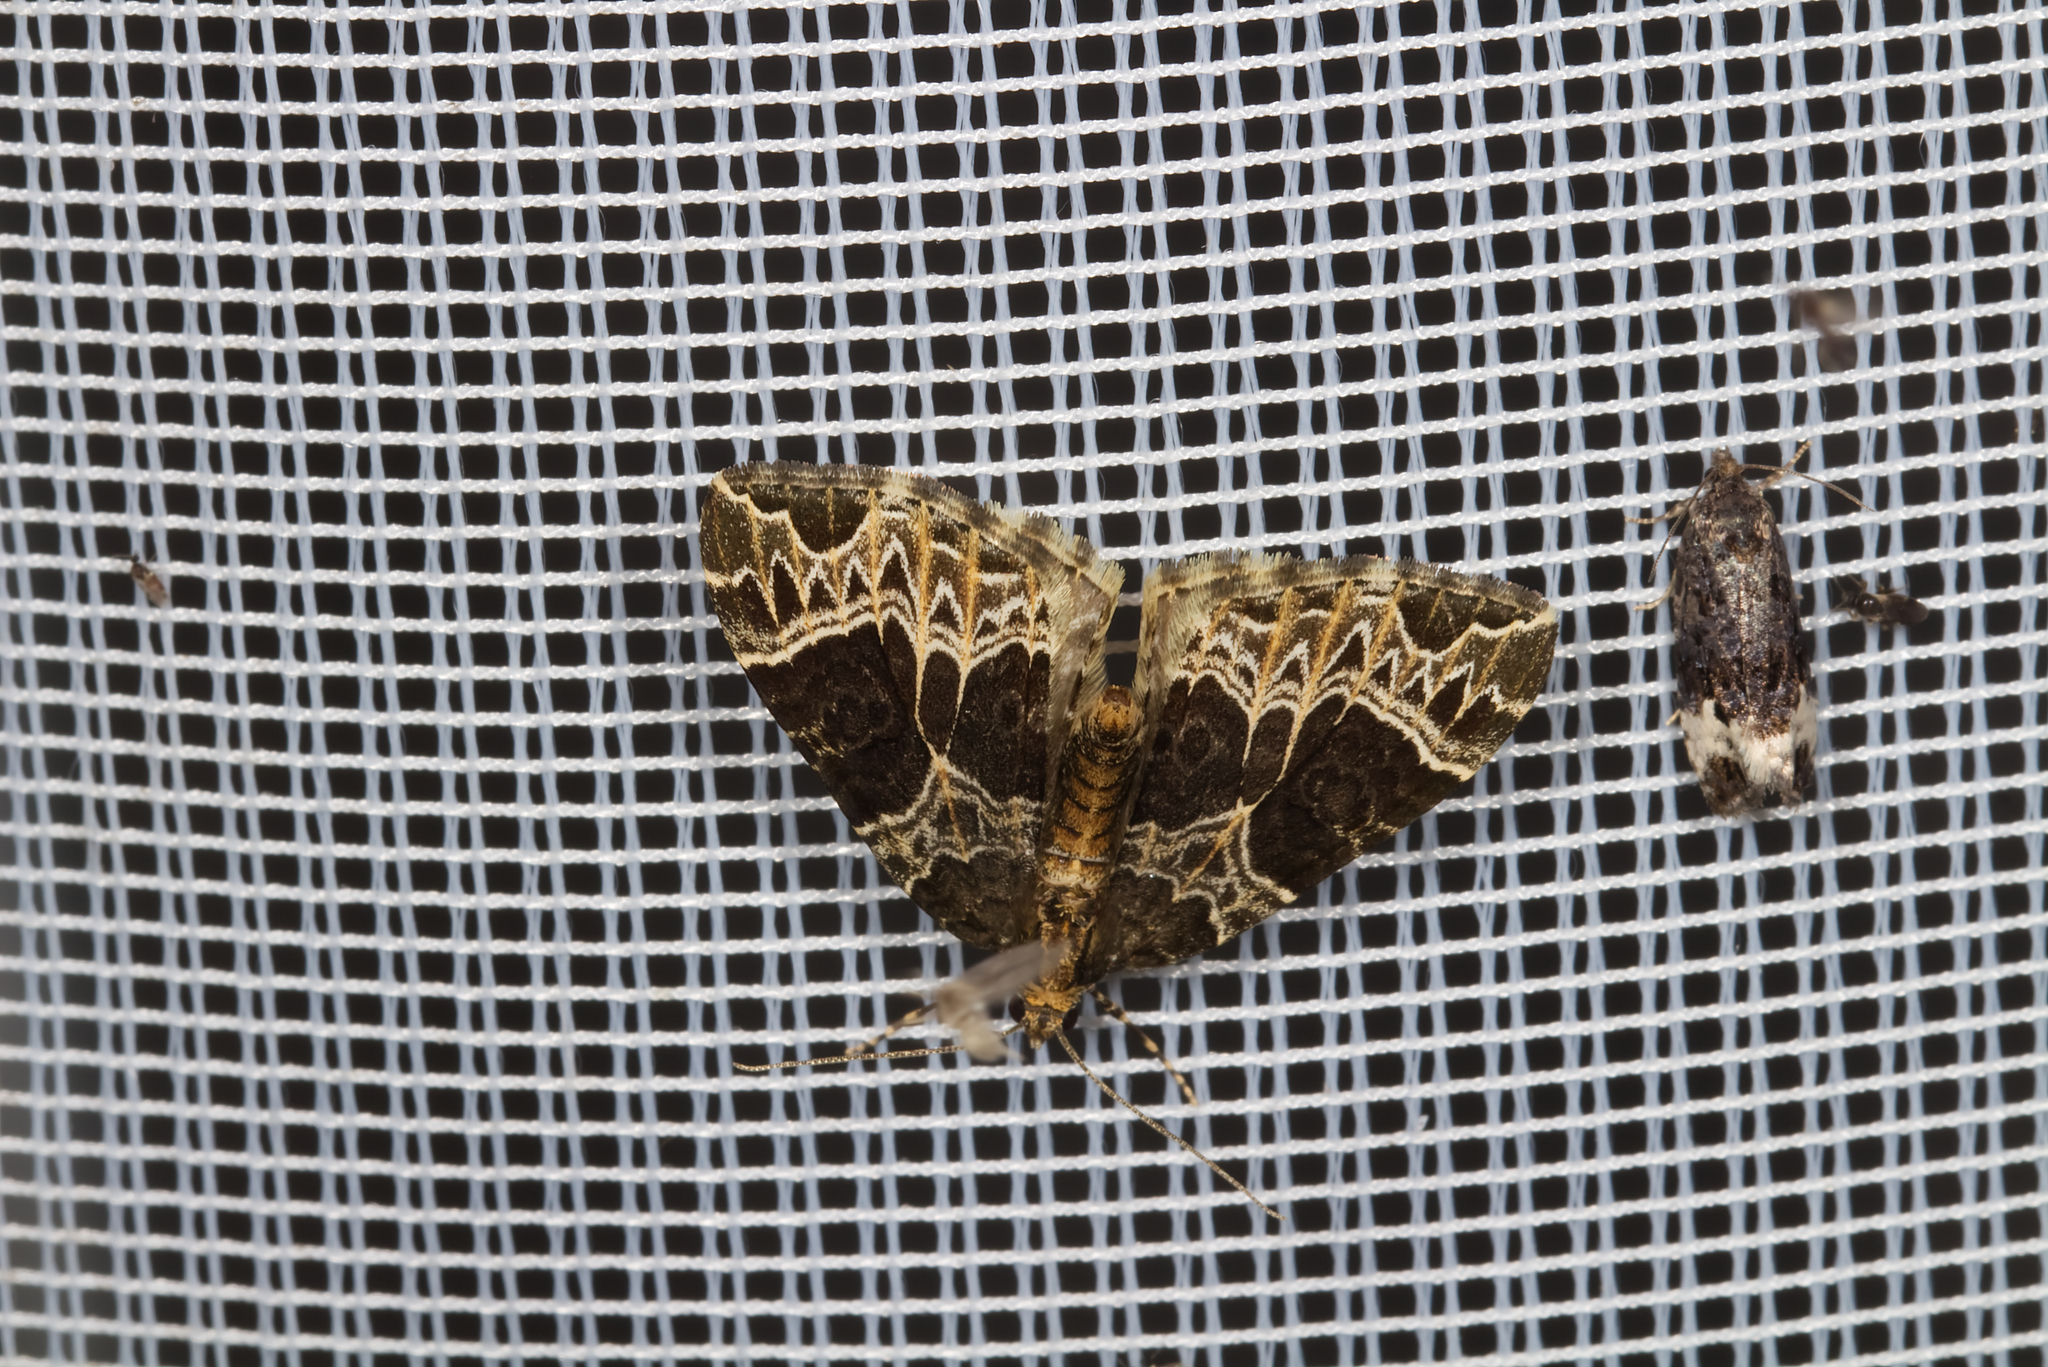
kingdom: Animalia
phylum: Arthropoda
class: Insecta
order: Lepidoptera
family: Geometridae
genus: Ecliptopera
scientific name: Ecliptopera silaceata
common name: Small phoenix
